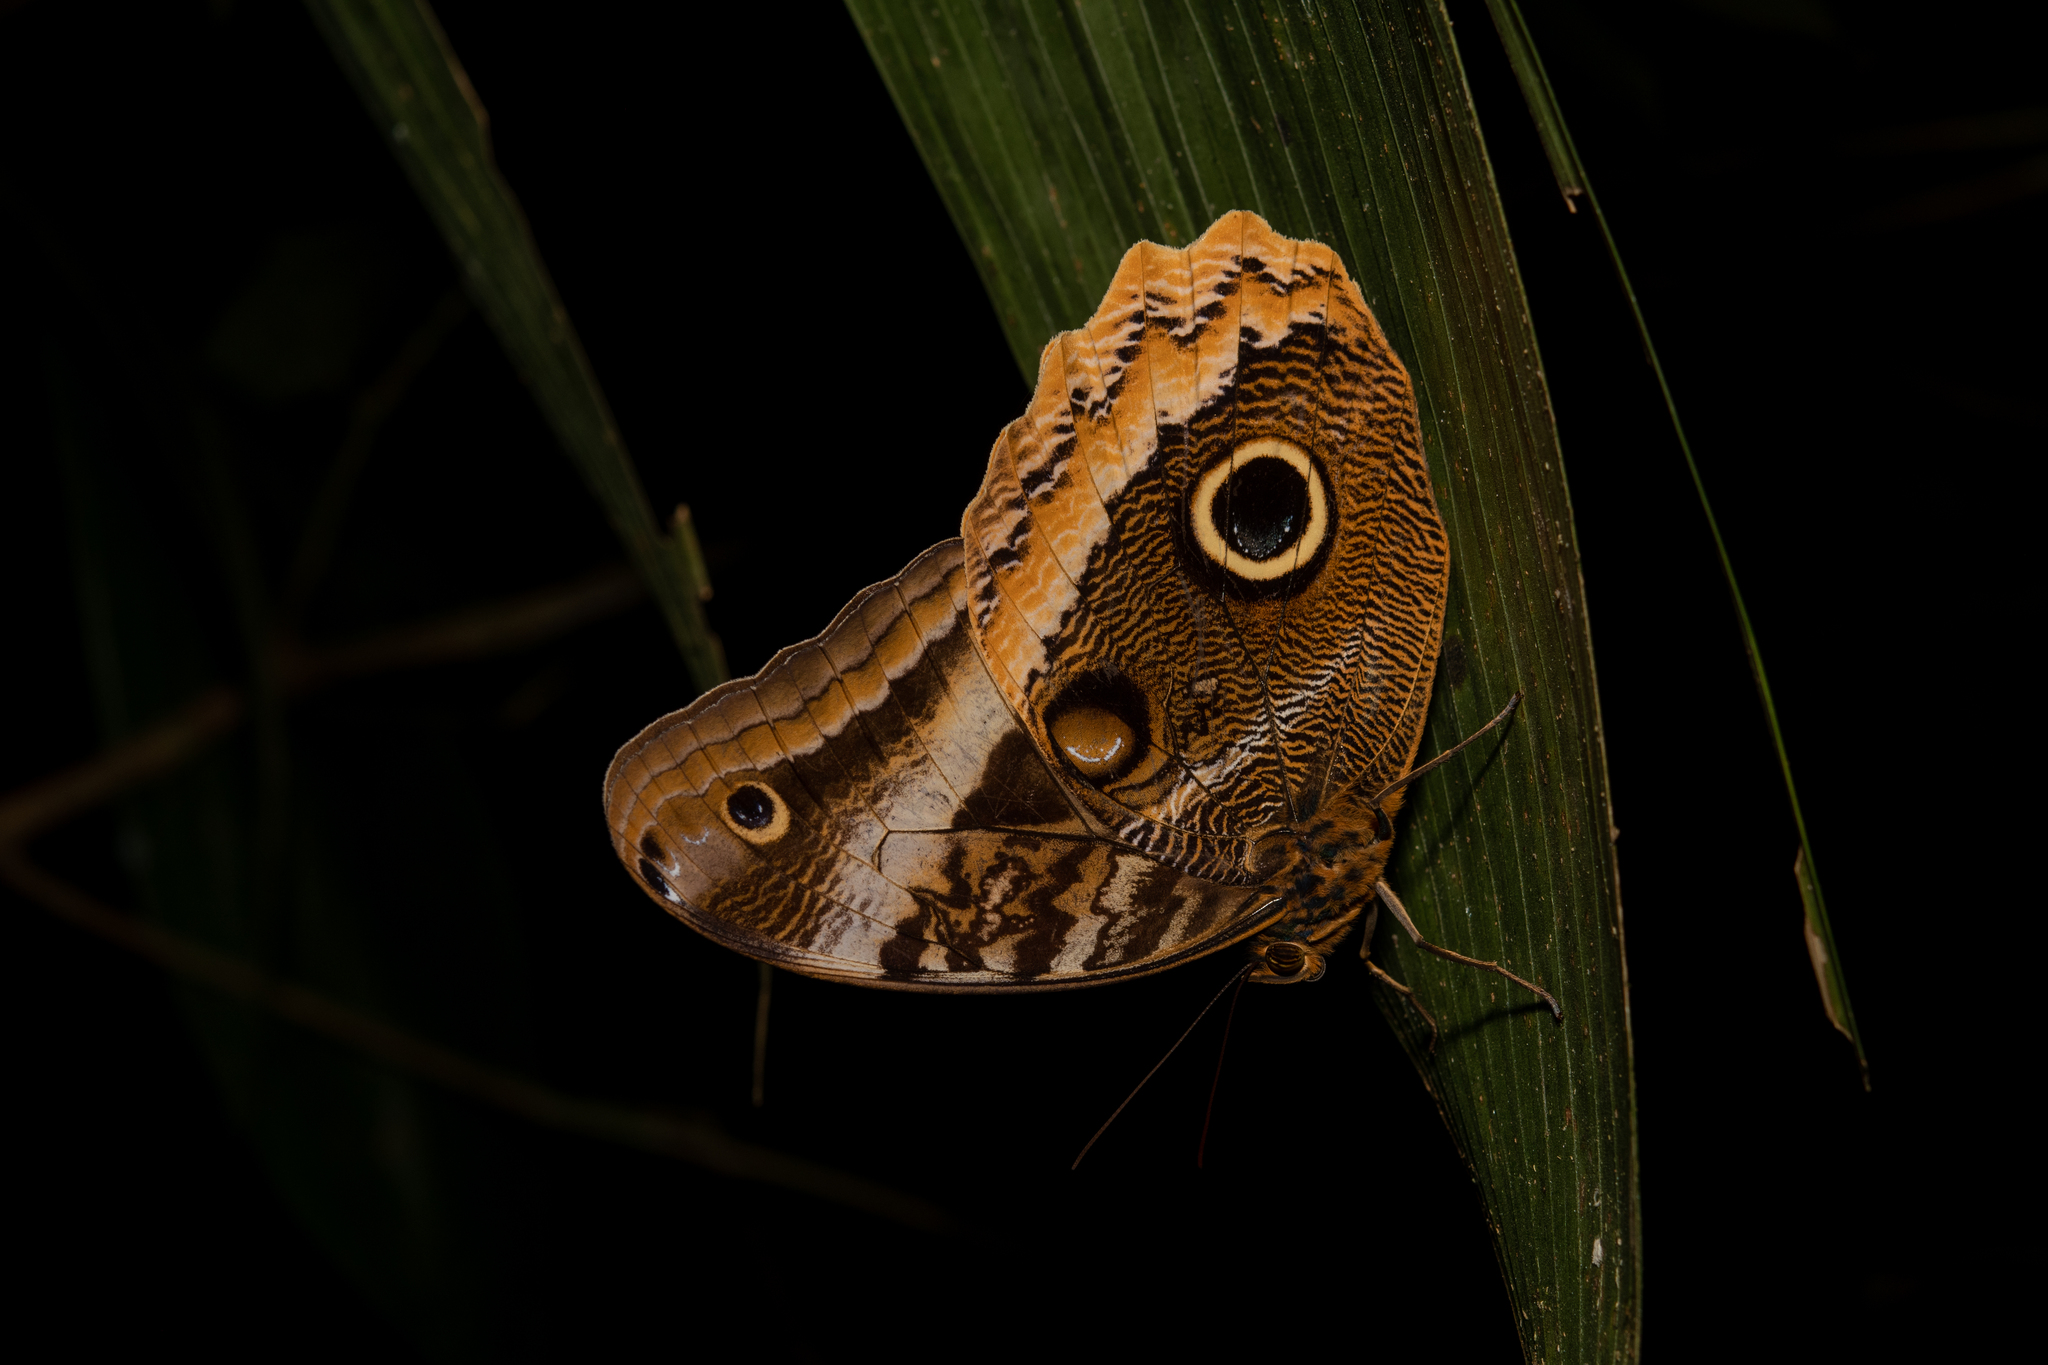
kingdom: Animalia
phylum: Arthropoda
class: Insecta
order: Lepidoptera
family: Nymphalidae
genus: Caligo
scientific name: Caligo uranus
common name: Gold-edged owl-butterfly
